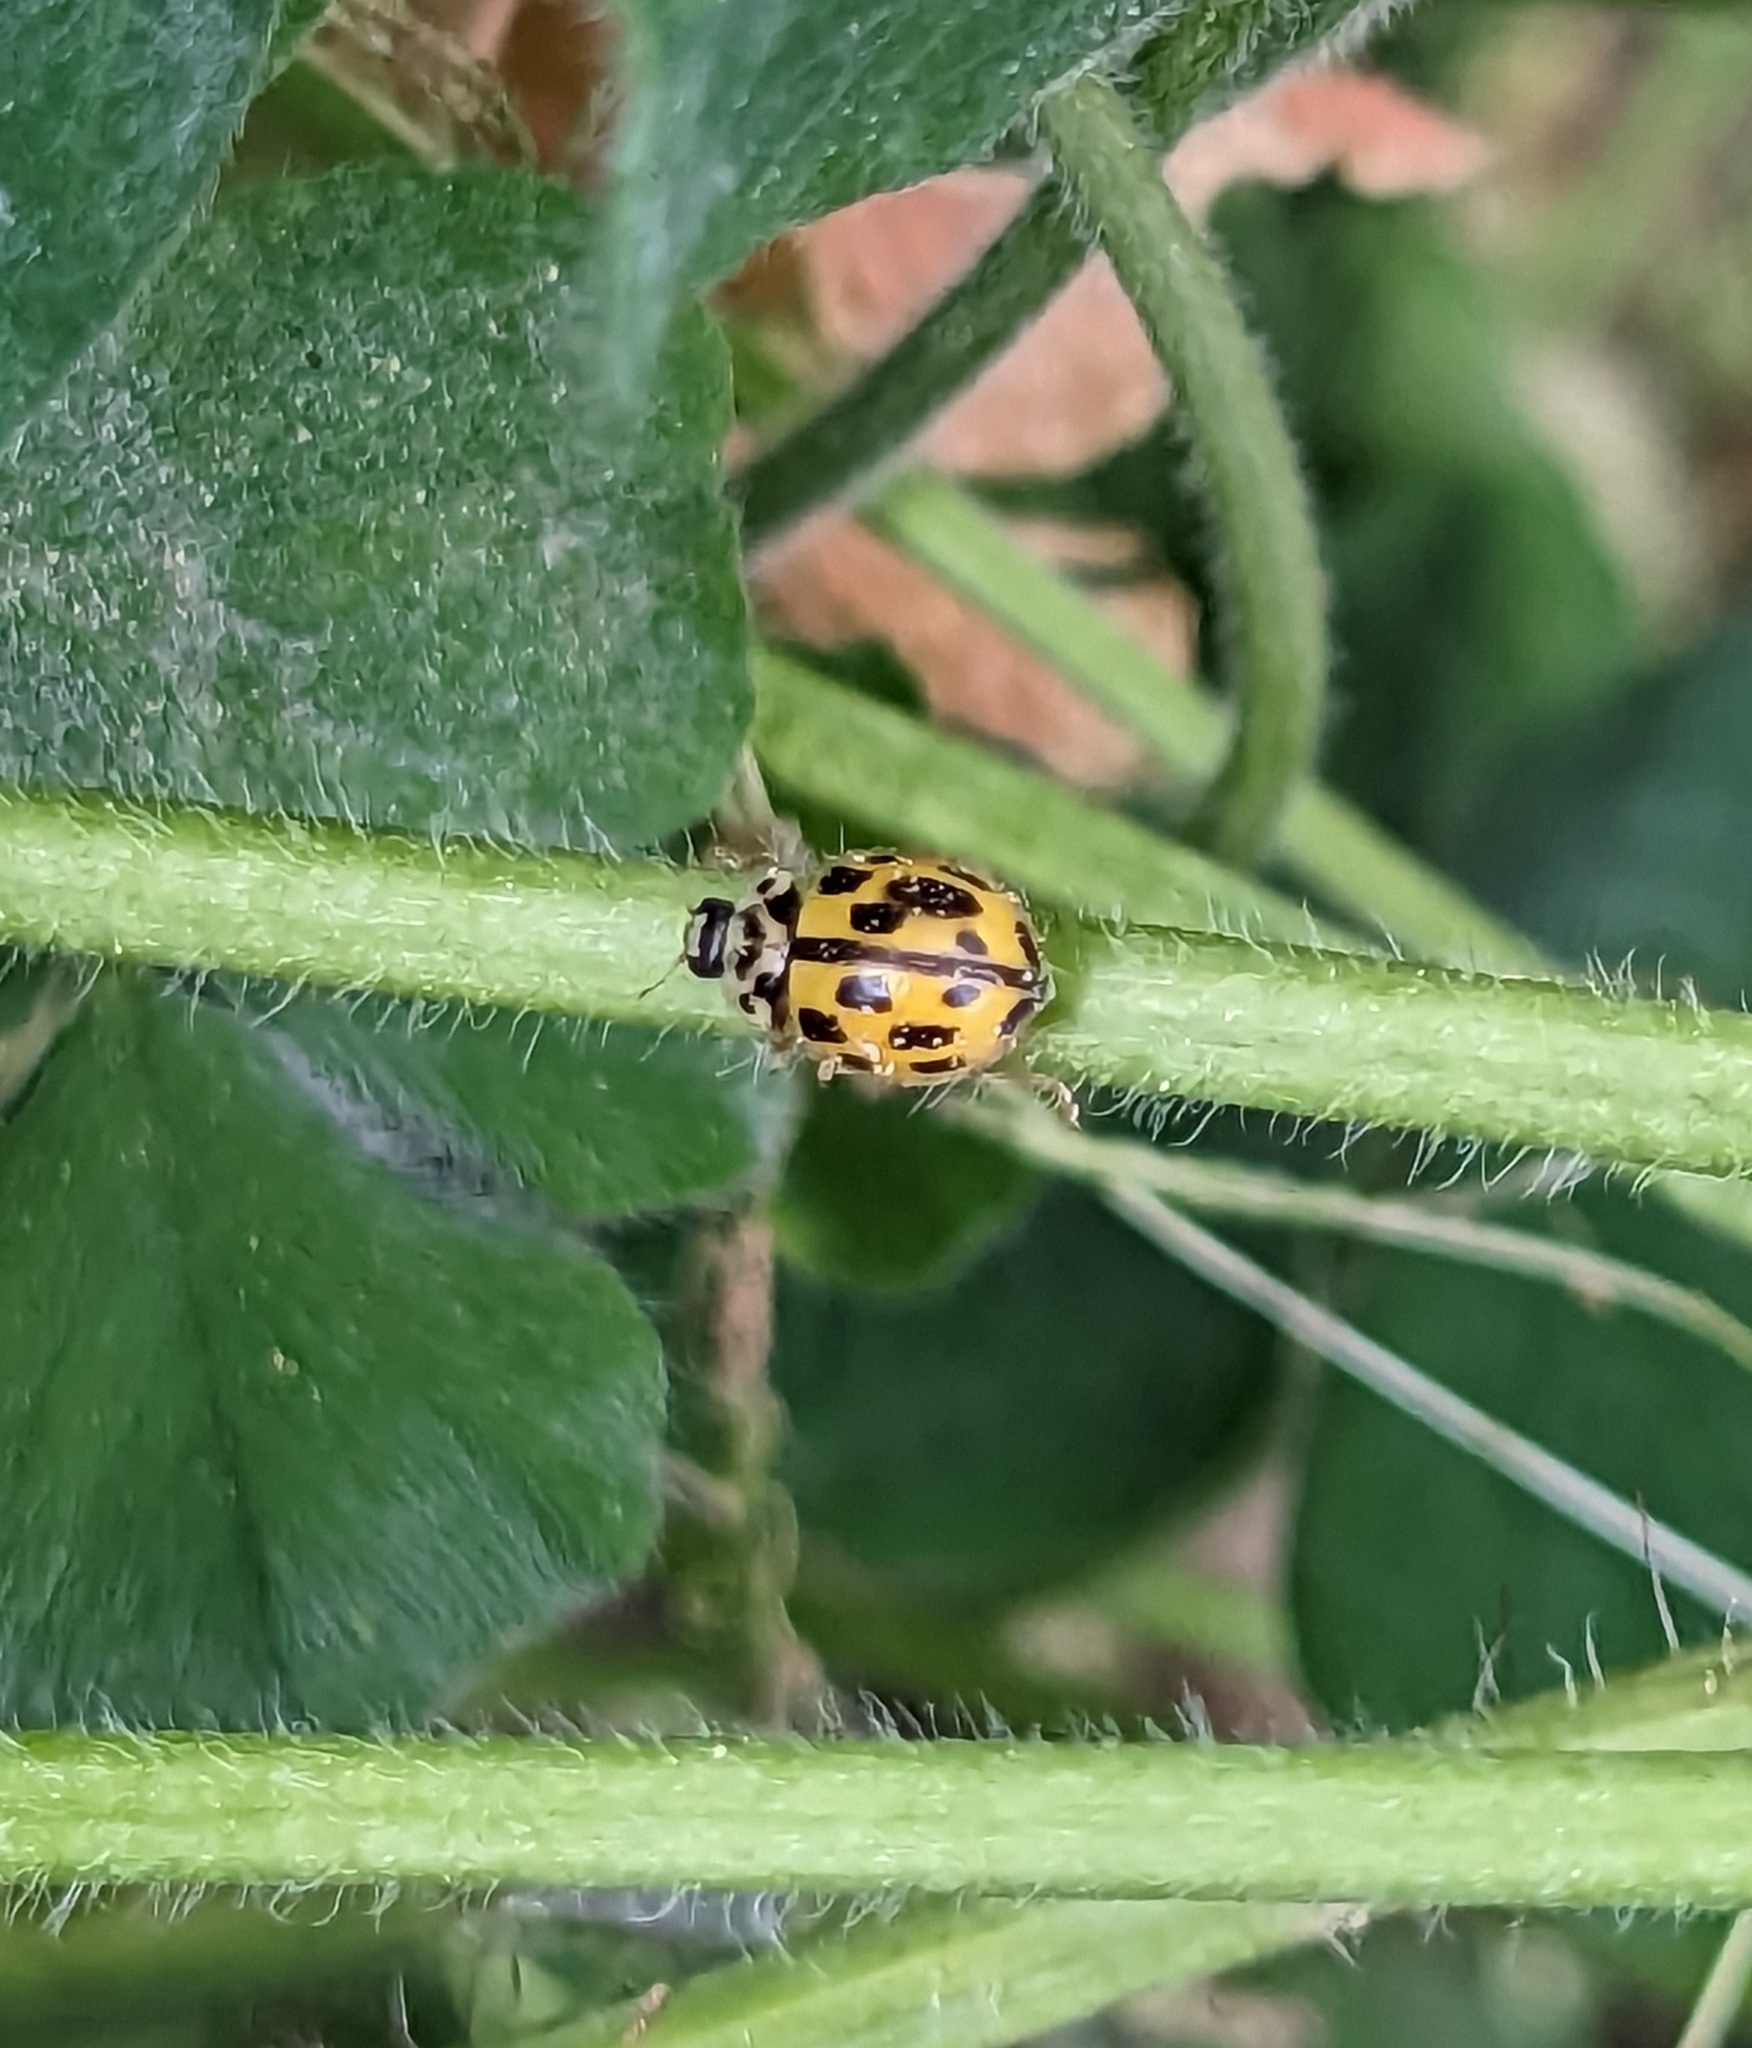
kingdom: Animalia
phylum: Arthropoda
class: Insecta
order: Coleoptera
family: Coccinellidae
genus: Propylaea
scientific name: Propylaea quatuordecimpunctata
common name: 14-spotted ladybird beetle
